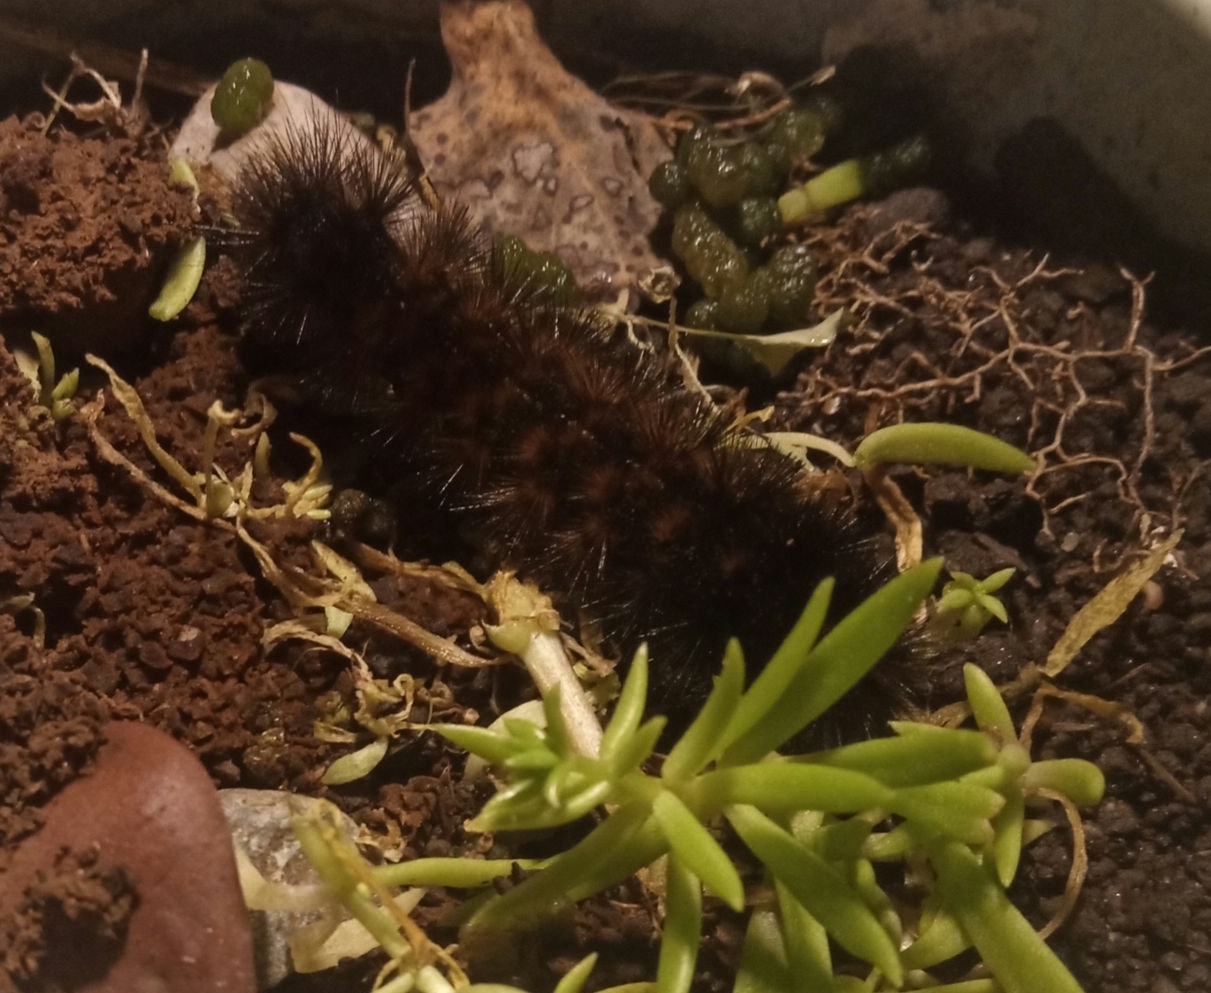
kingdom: Animalia
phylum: Arthropoda
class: Insecta
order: Lepidoptera
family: Erebidae
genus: Pyrrharctia
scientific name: Pyrrharctia isabella
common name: Isabella tiger moth
